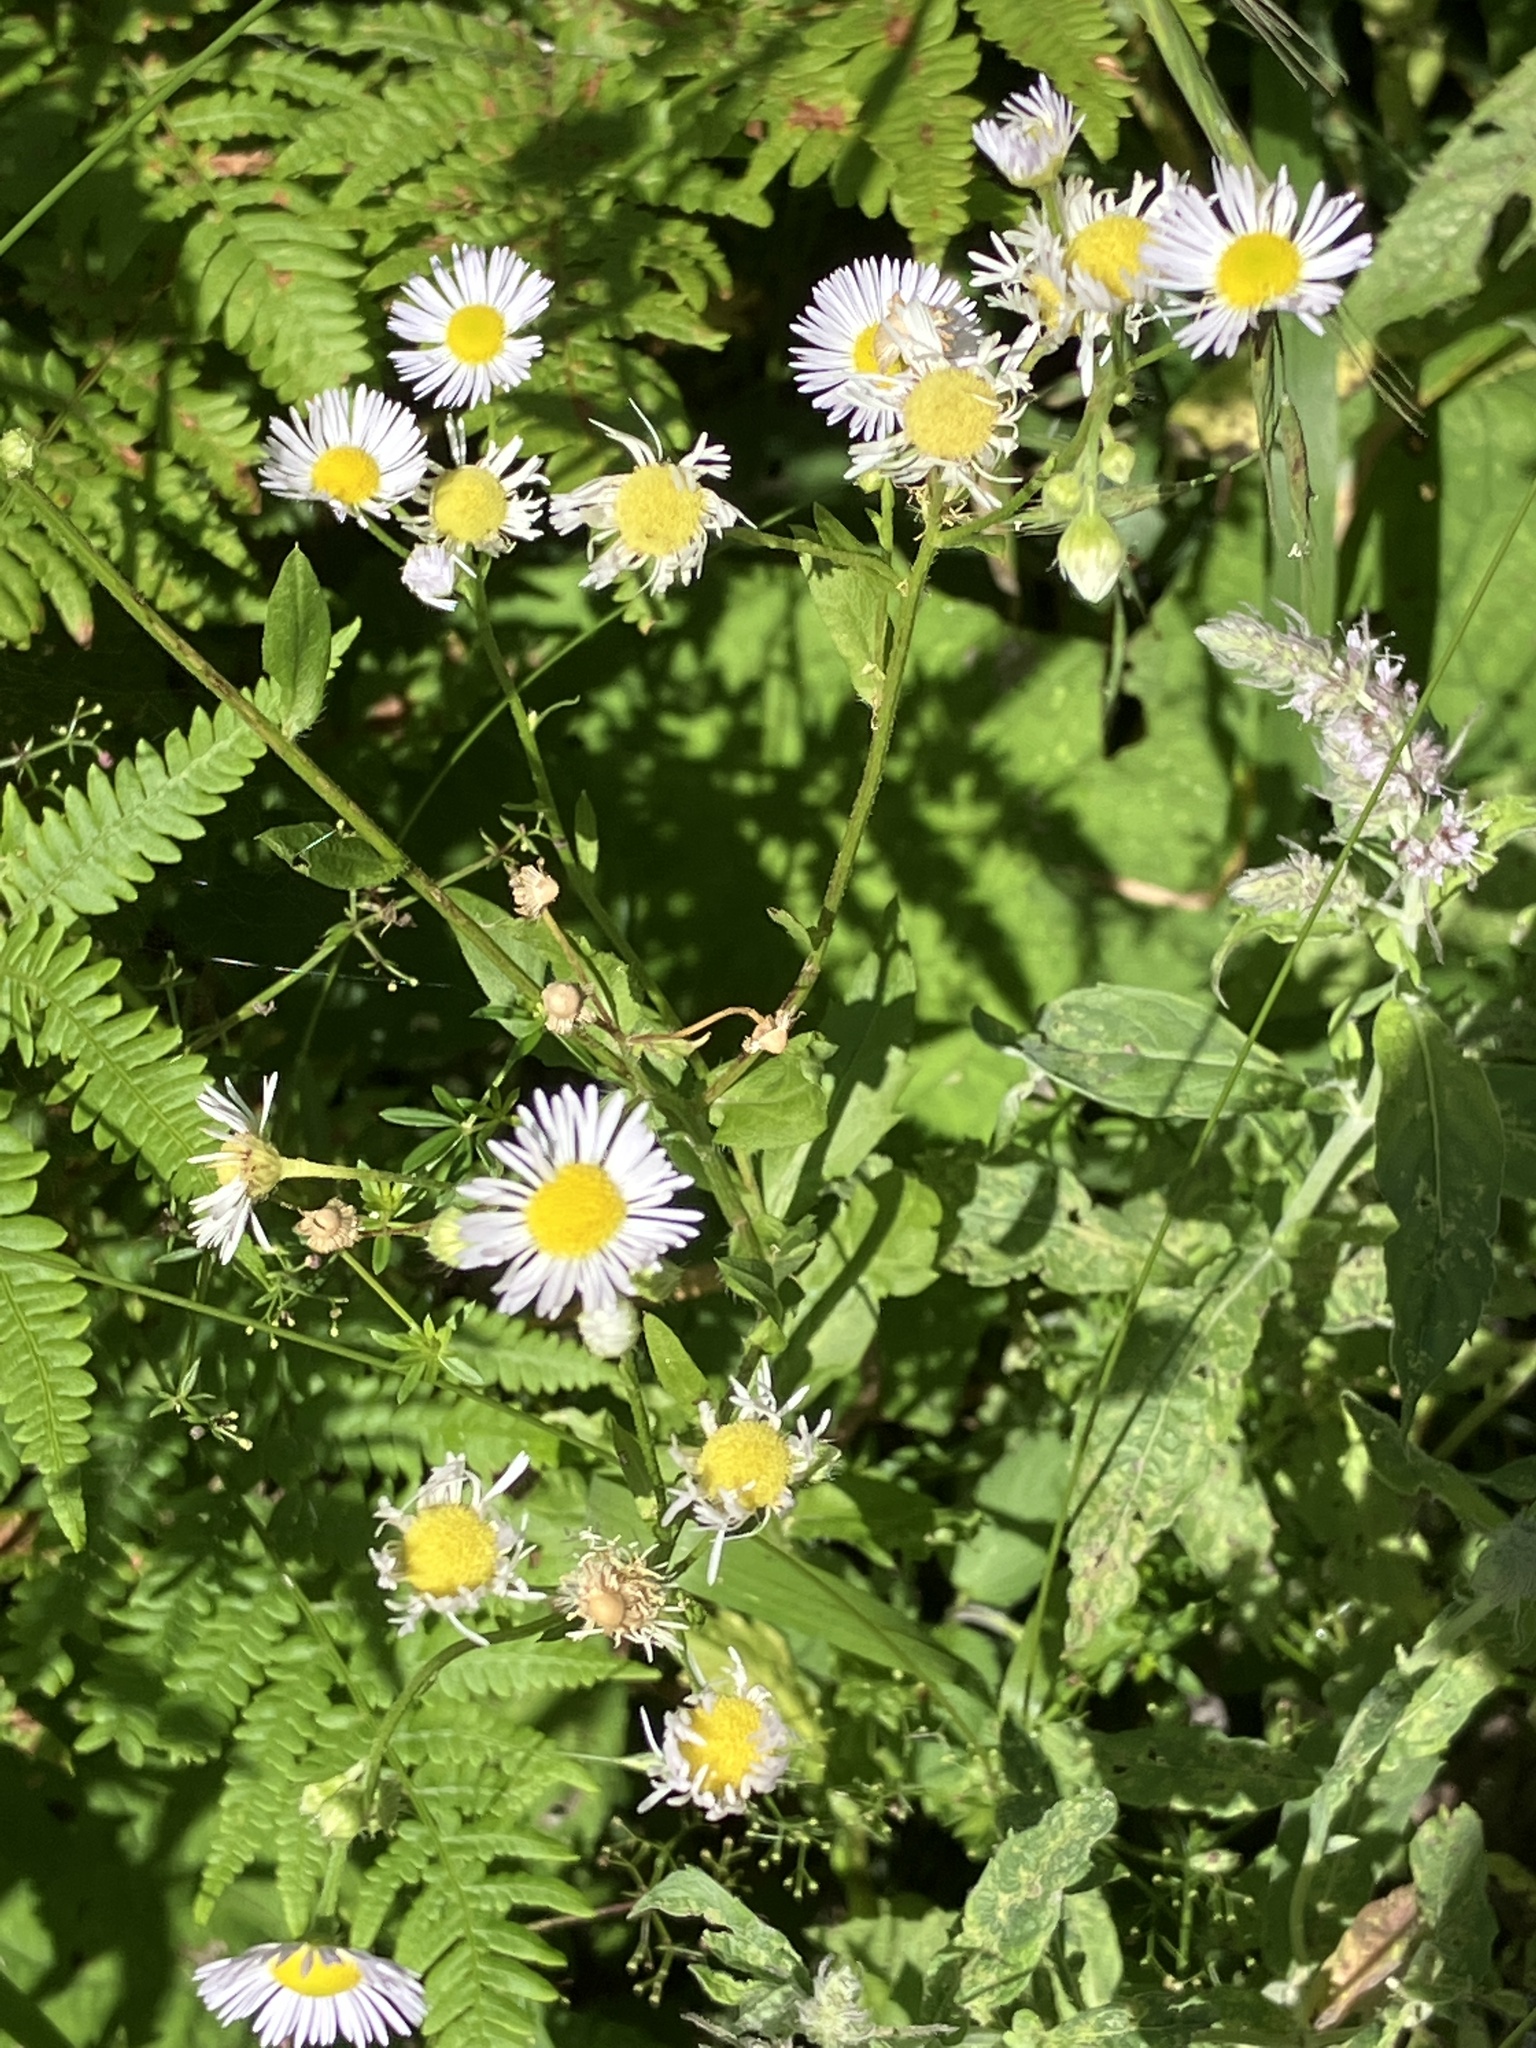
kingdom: Plantae
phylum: Tracheophyta
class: Magnoliopsida
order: Asterales
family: Asteraceae
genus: Erigeron
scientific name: Erigeron annuus
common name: Tall fleabane
